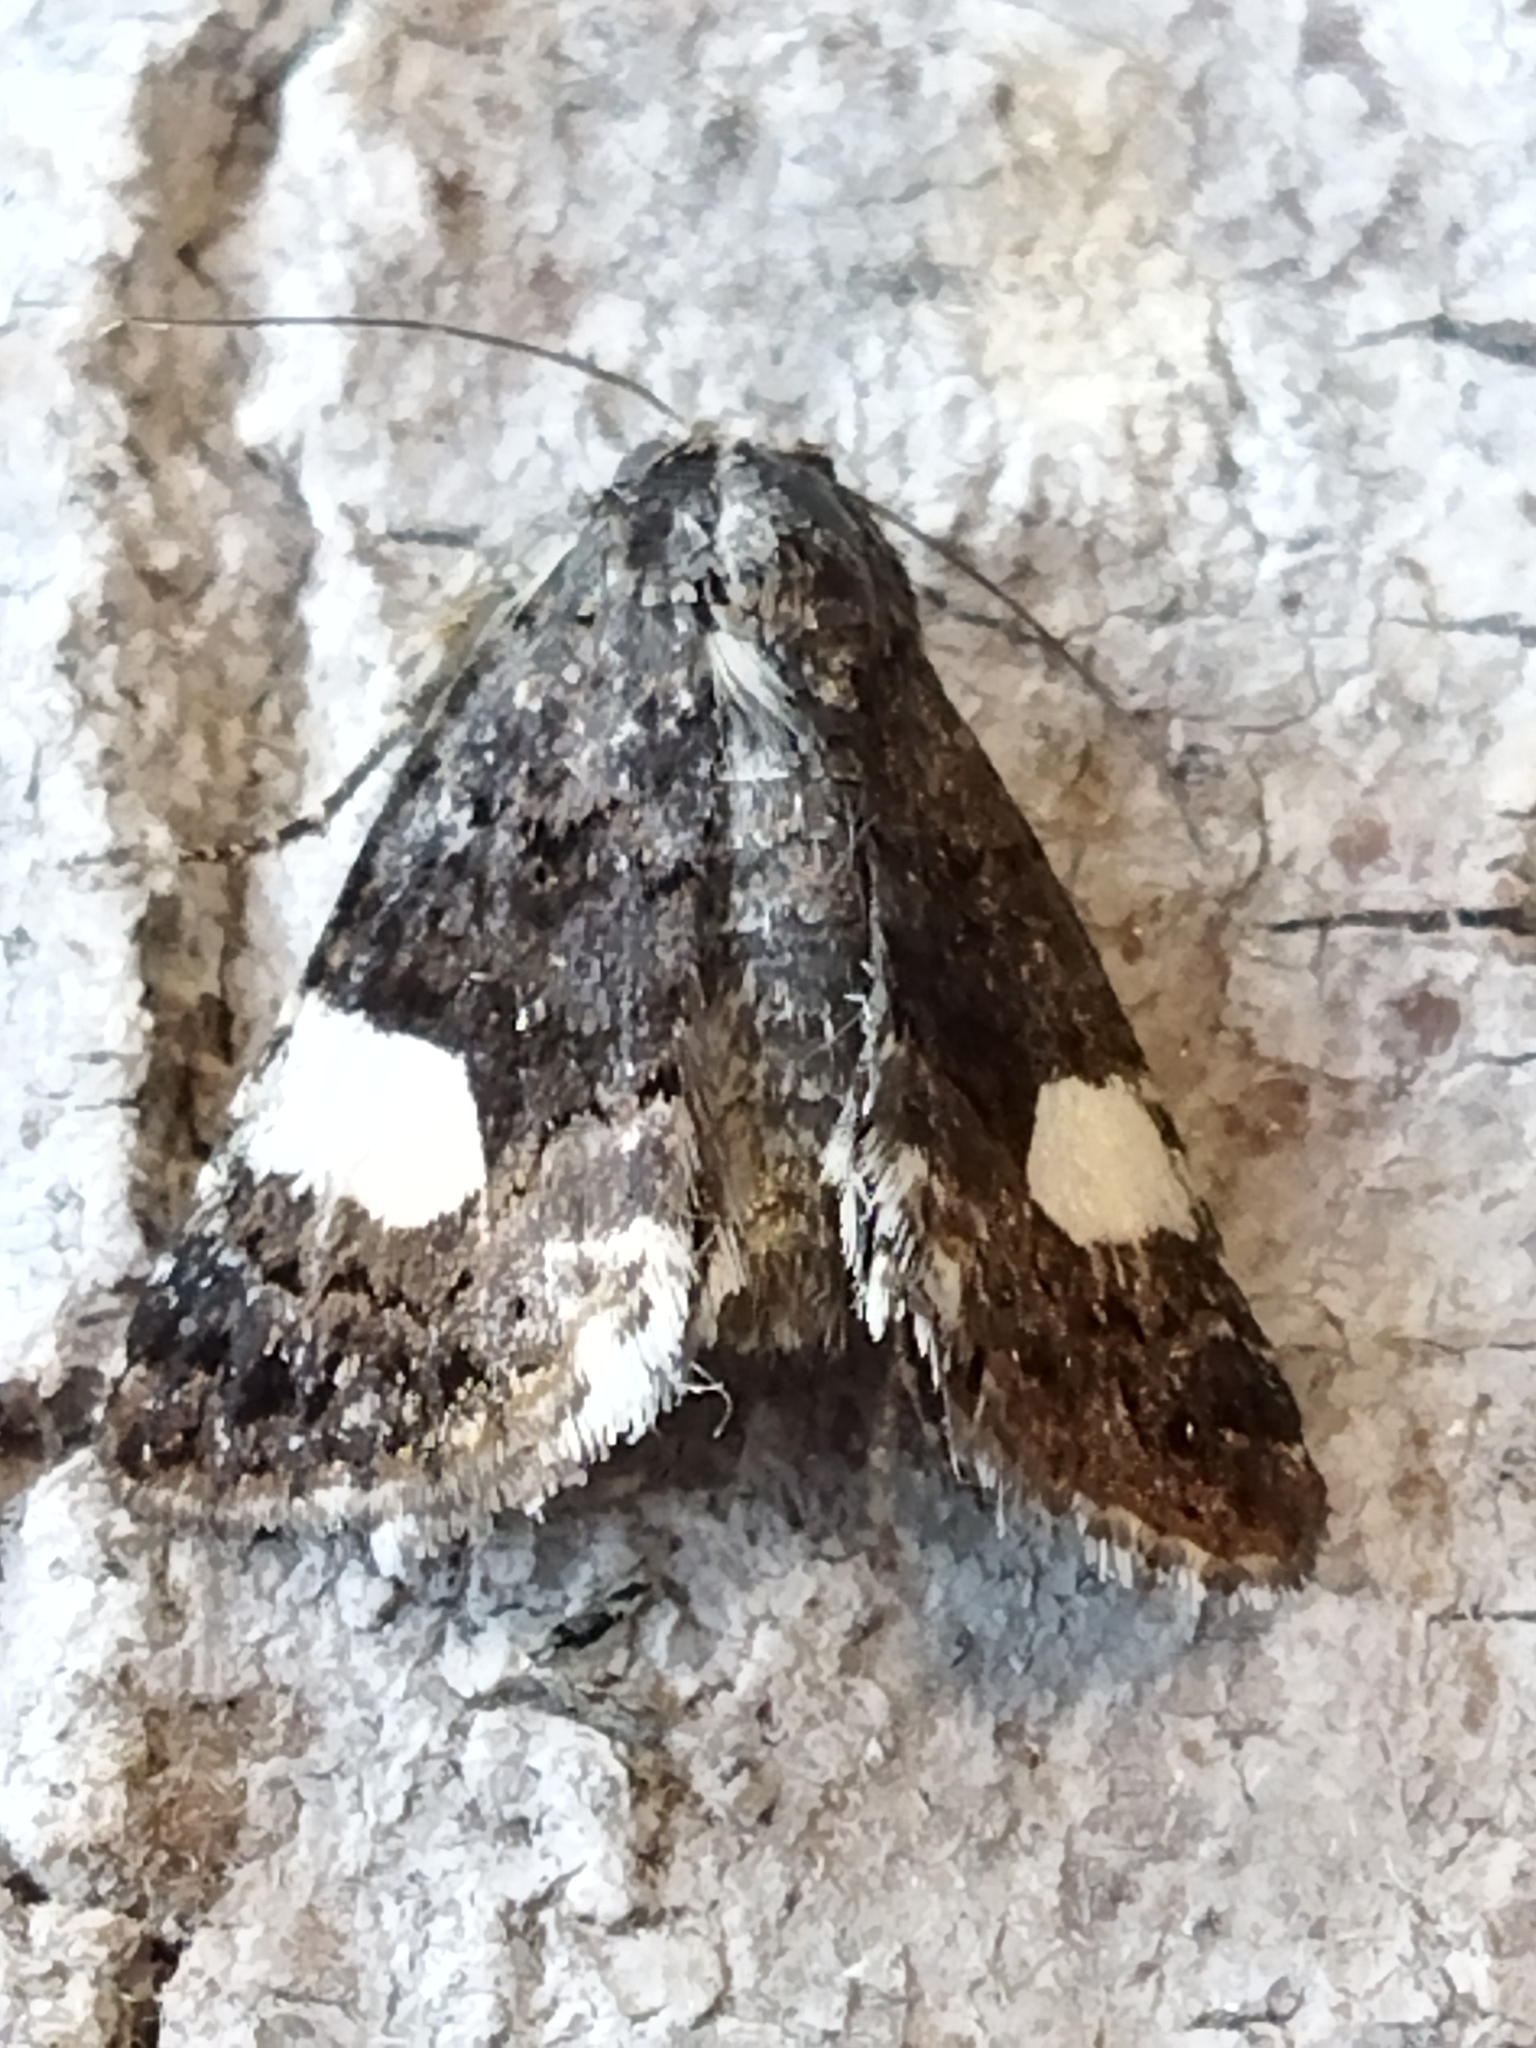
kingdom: Animalia
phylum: Arthropoda
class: Insecta
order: Lepidoptera
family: Erebidae
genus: Tyta
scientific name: Tyta luctuosa
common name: Four-spotted
